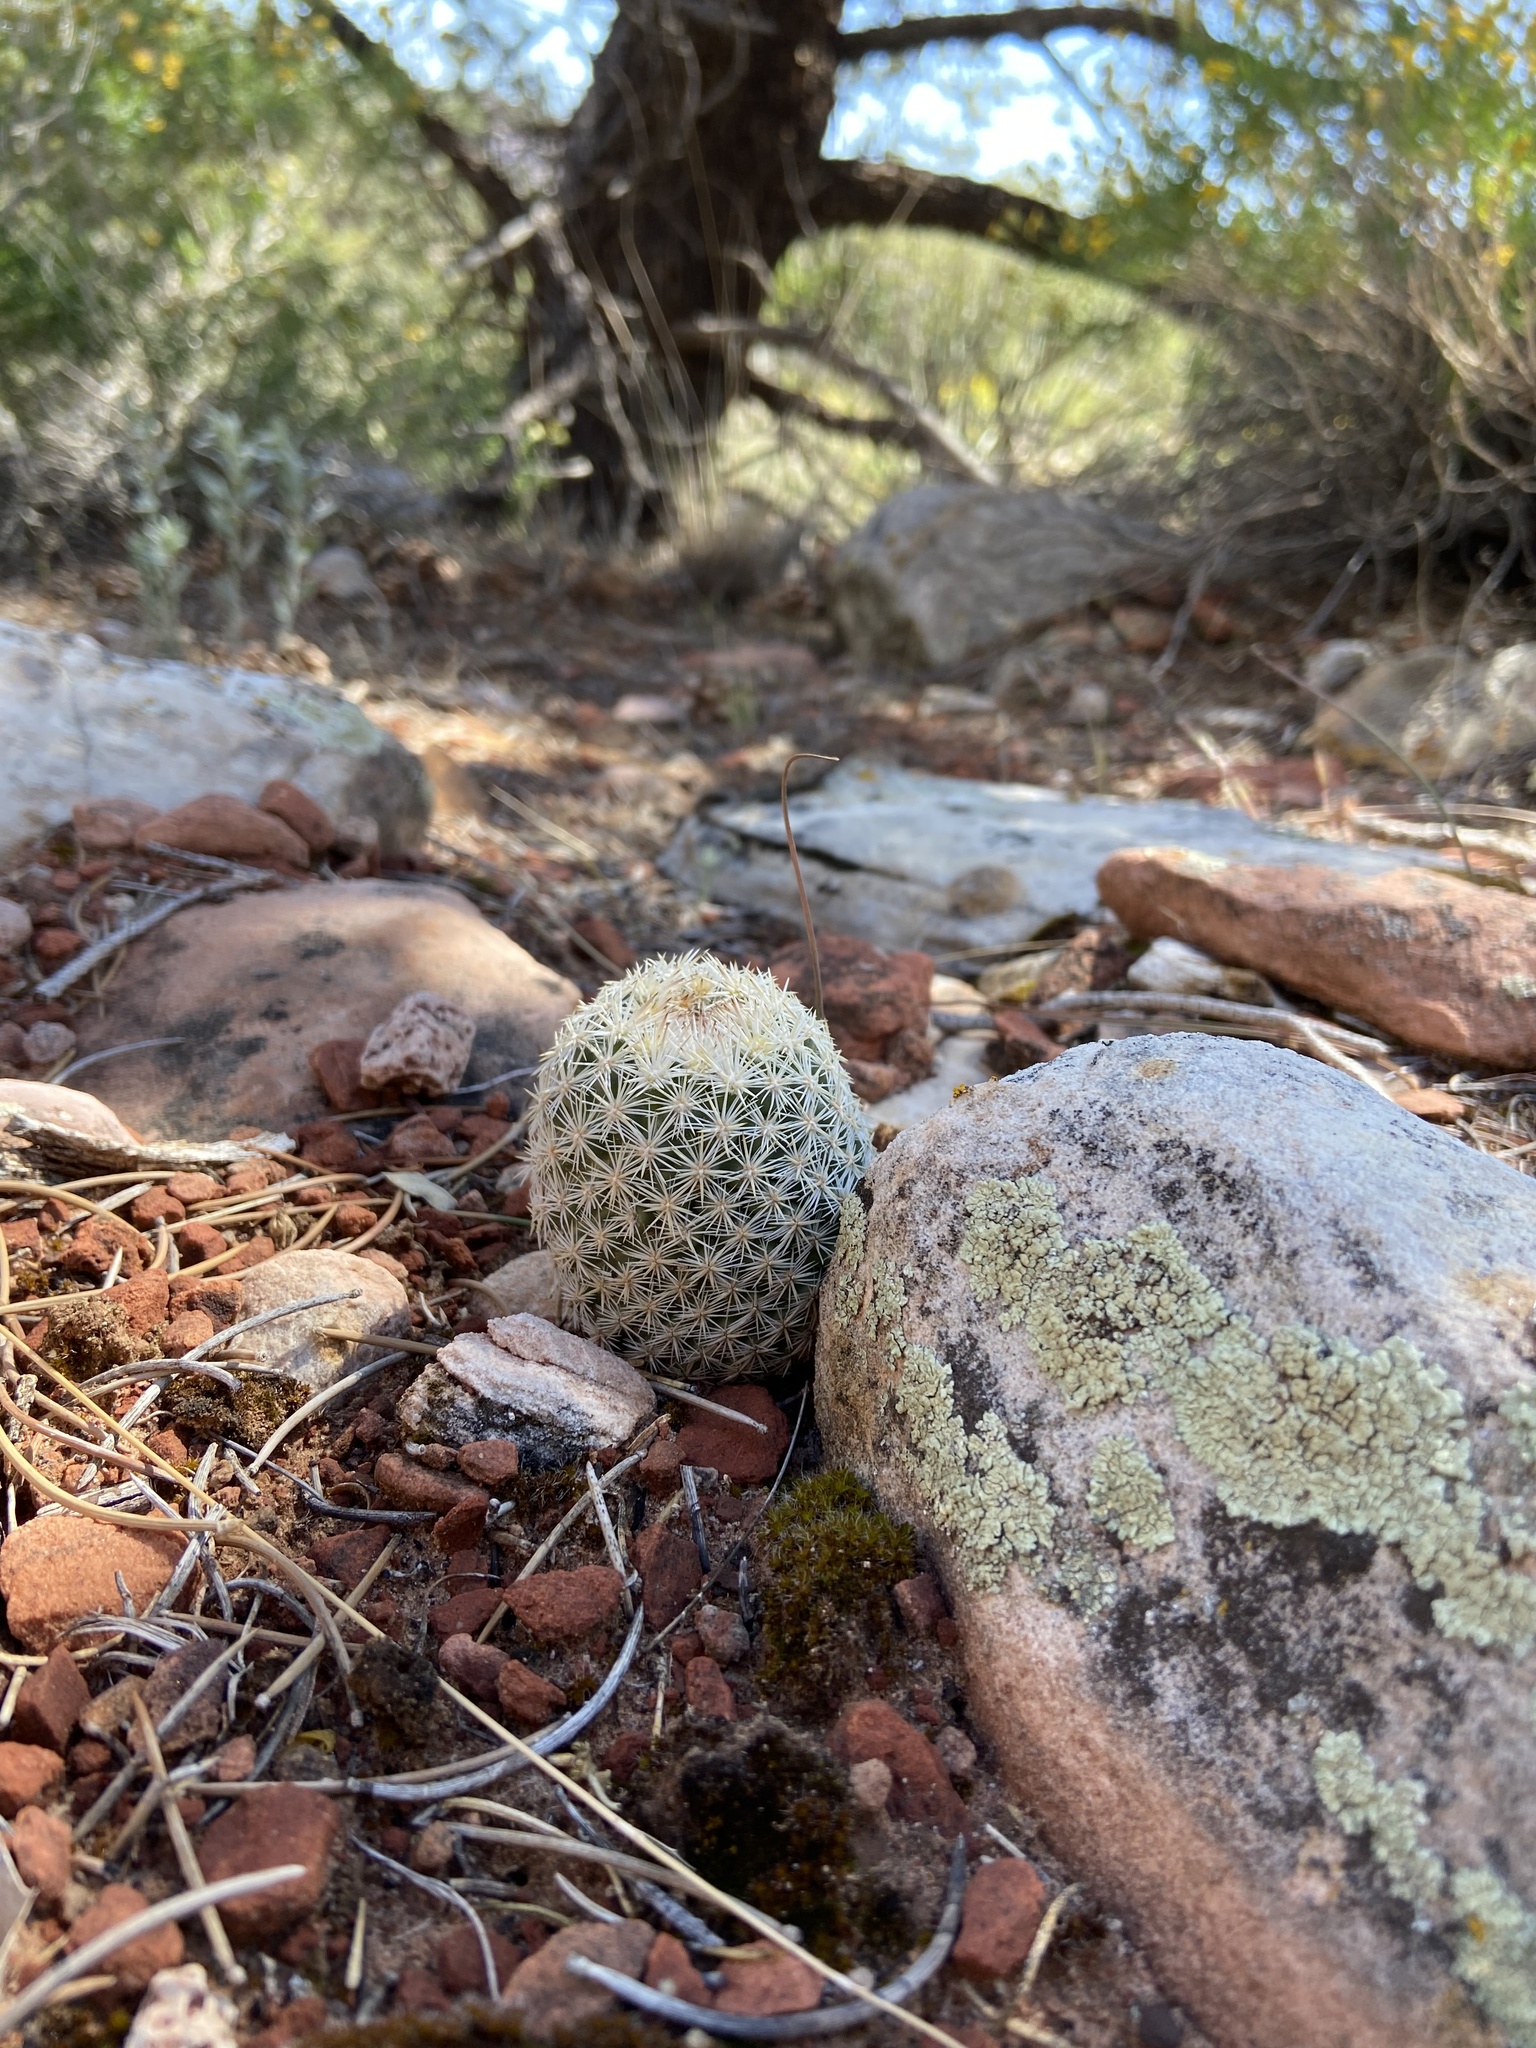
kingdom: Plantae
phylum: Tracheophyta
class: Magnoliopsida
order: Caryophyllales
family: Cactaceae
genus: Pelecyphora
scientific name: Pelecyphora dasyacantha
